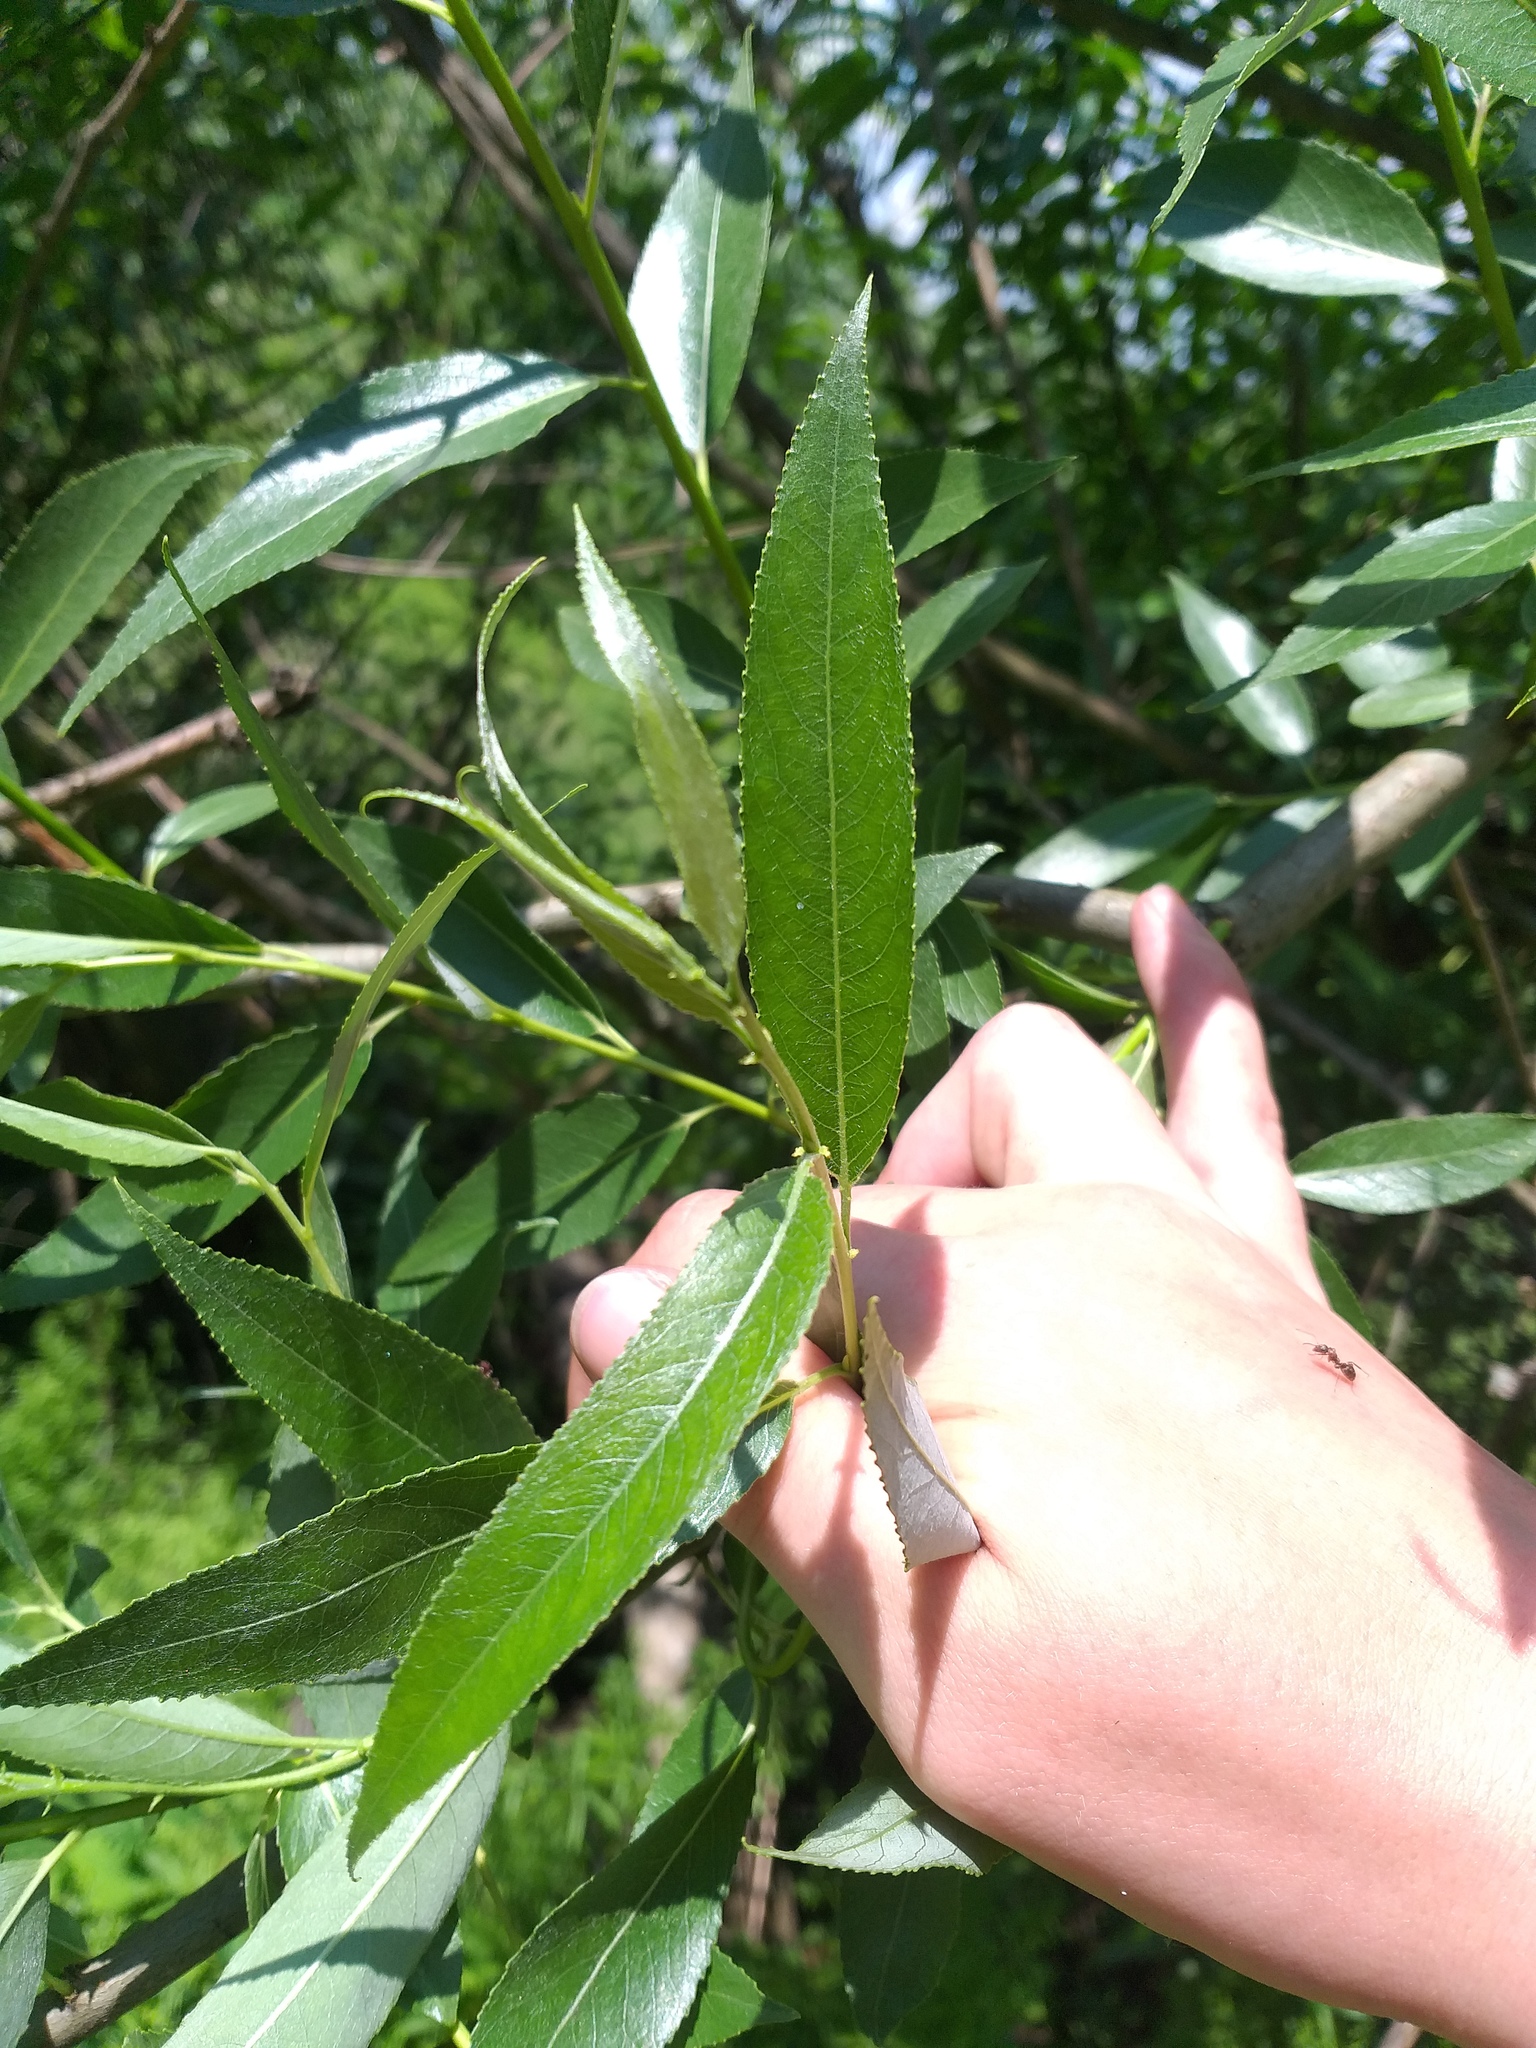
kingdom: Plantae
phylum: Tracheophyta
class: Magnoliopsida
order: Malpighiales
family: Salicaceae
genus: Salix
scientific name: Salix fragilis
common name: Crack willow
